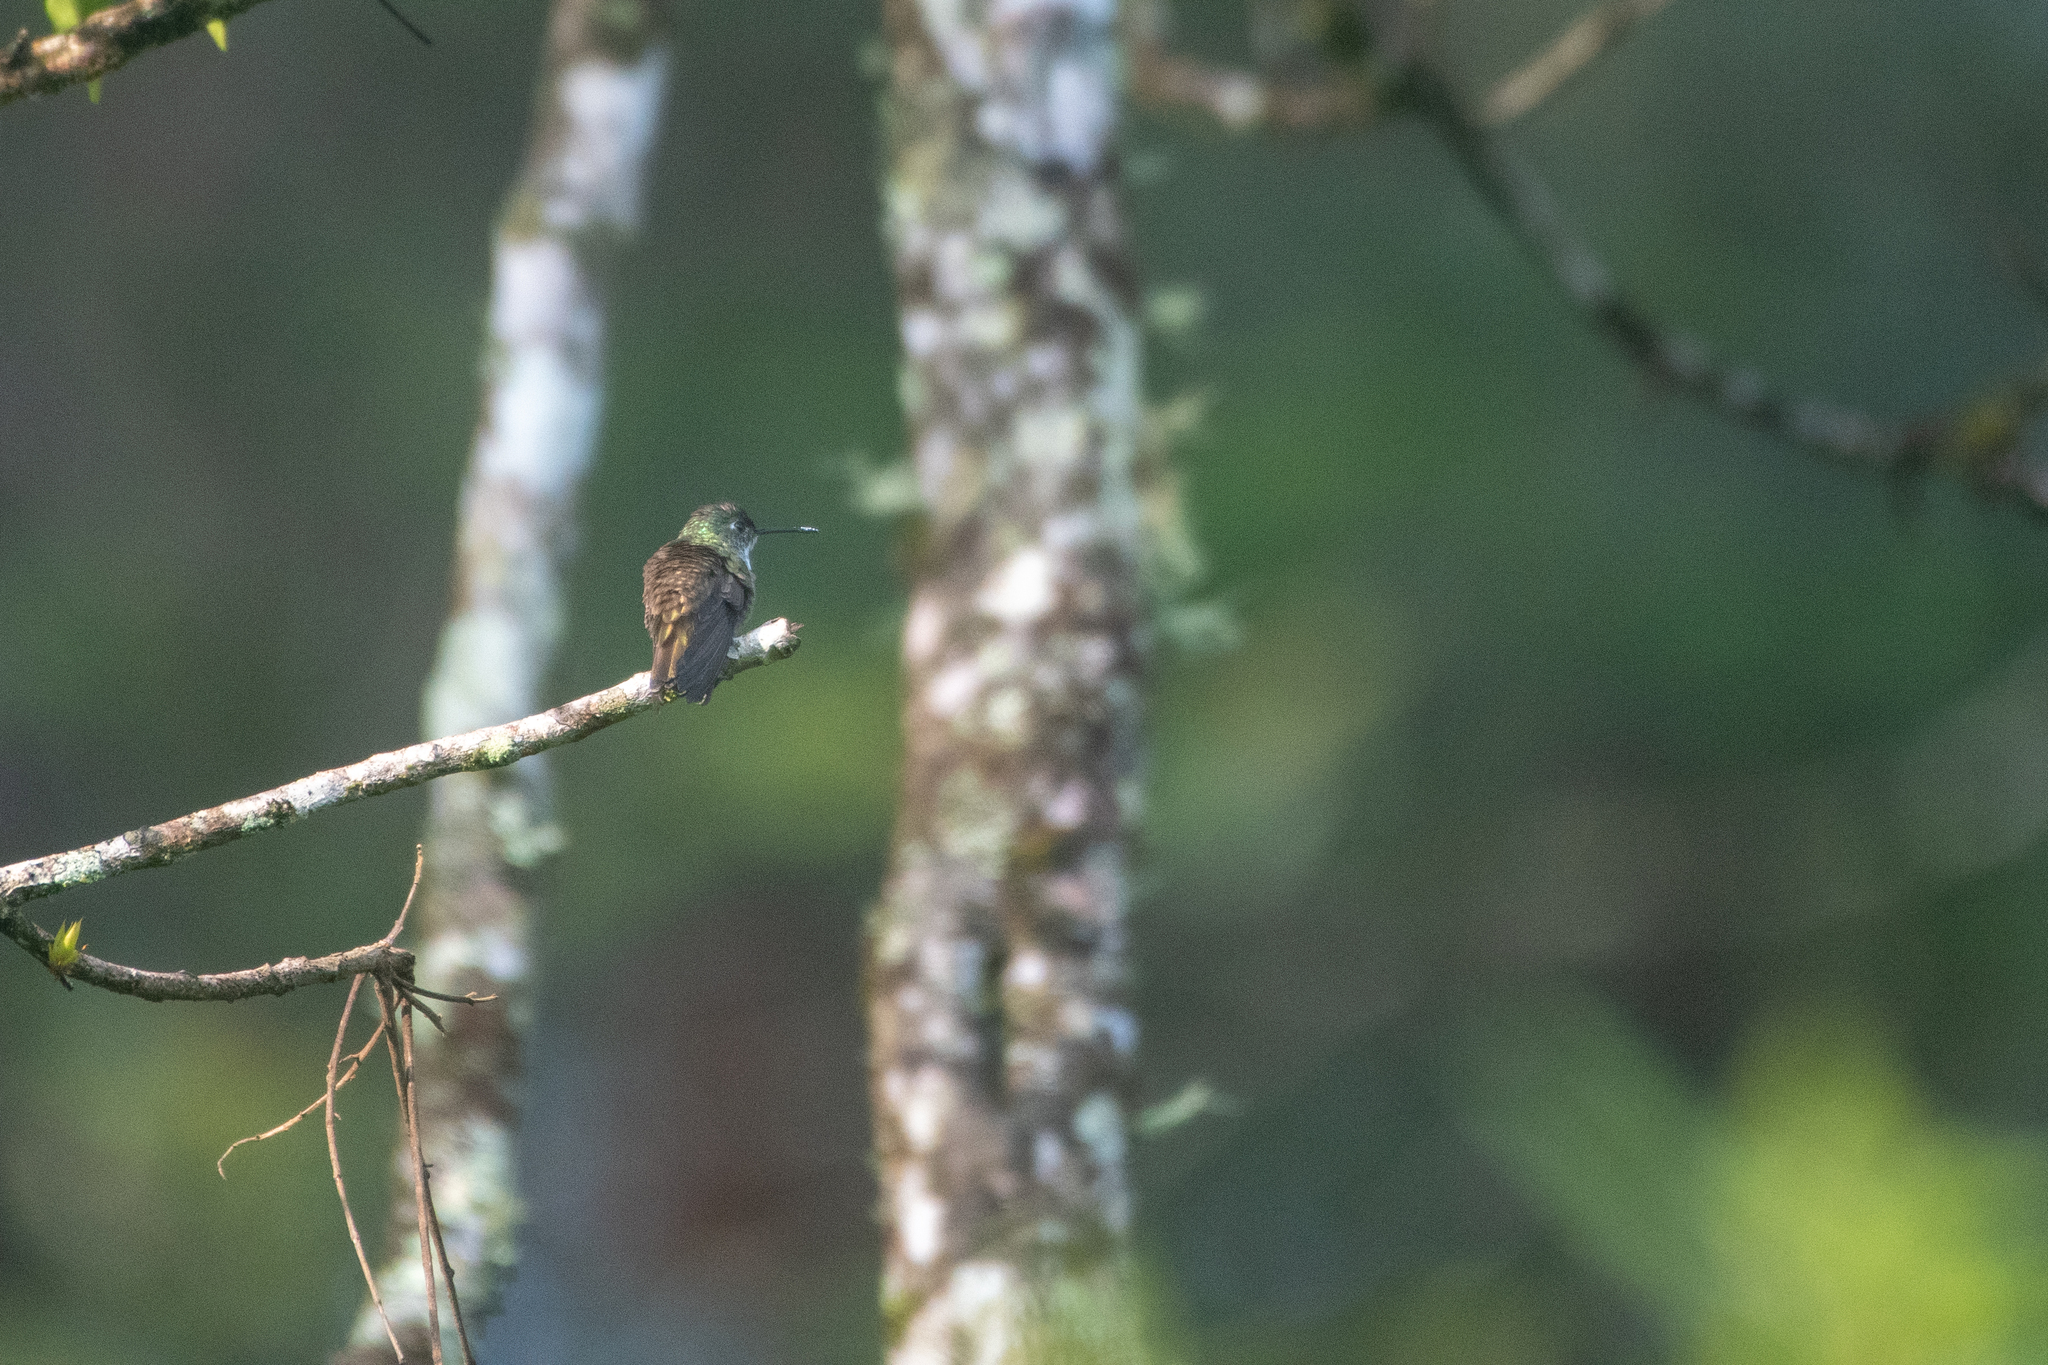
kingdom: Animalia
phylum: Chordata
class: Aves
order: Apodiformes
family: Trochilidae
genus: Saucerottia
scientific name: Saucerottia cyanocephala
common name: Azure-crowned hummingbird
